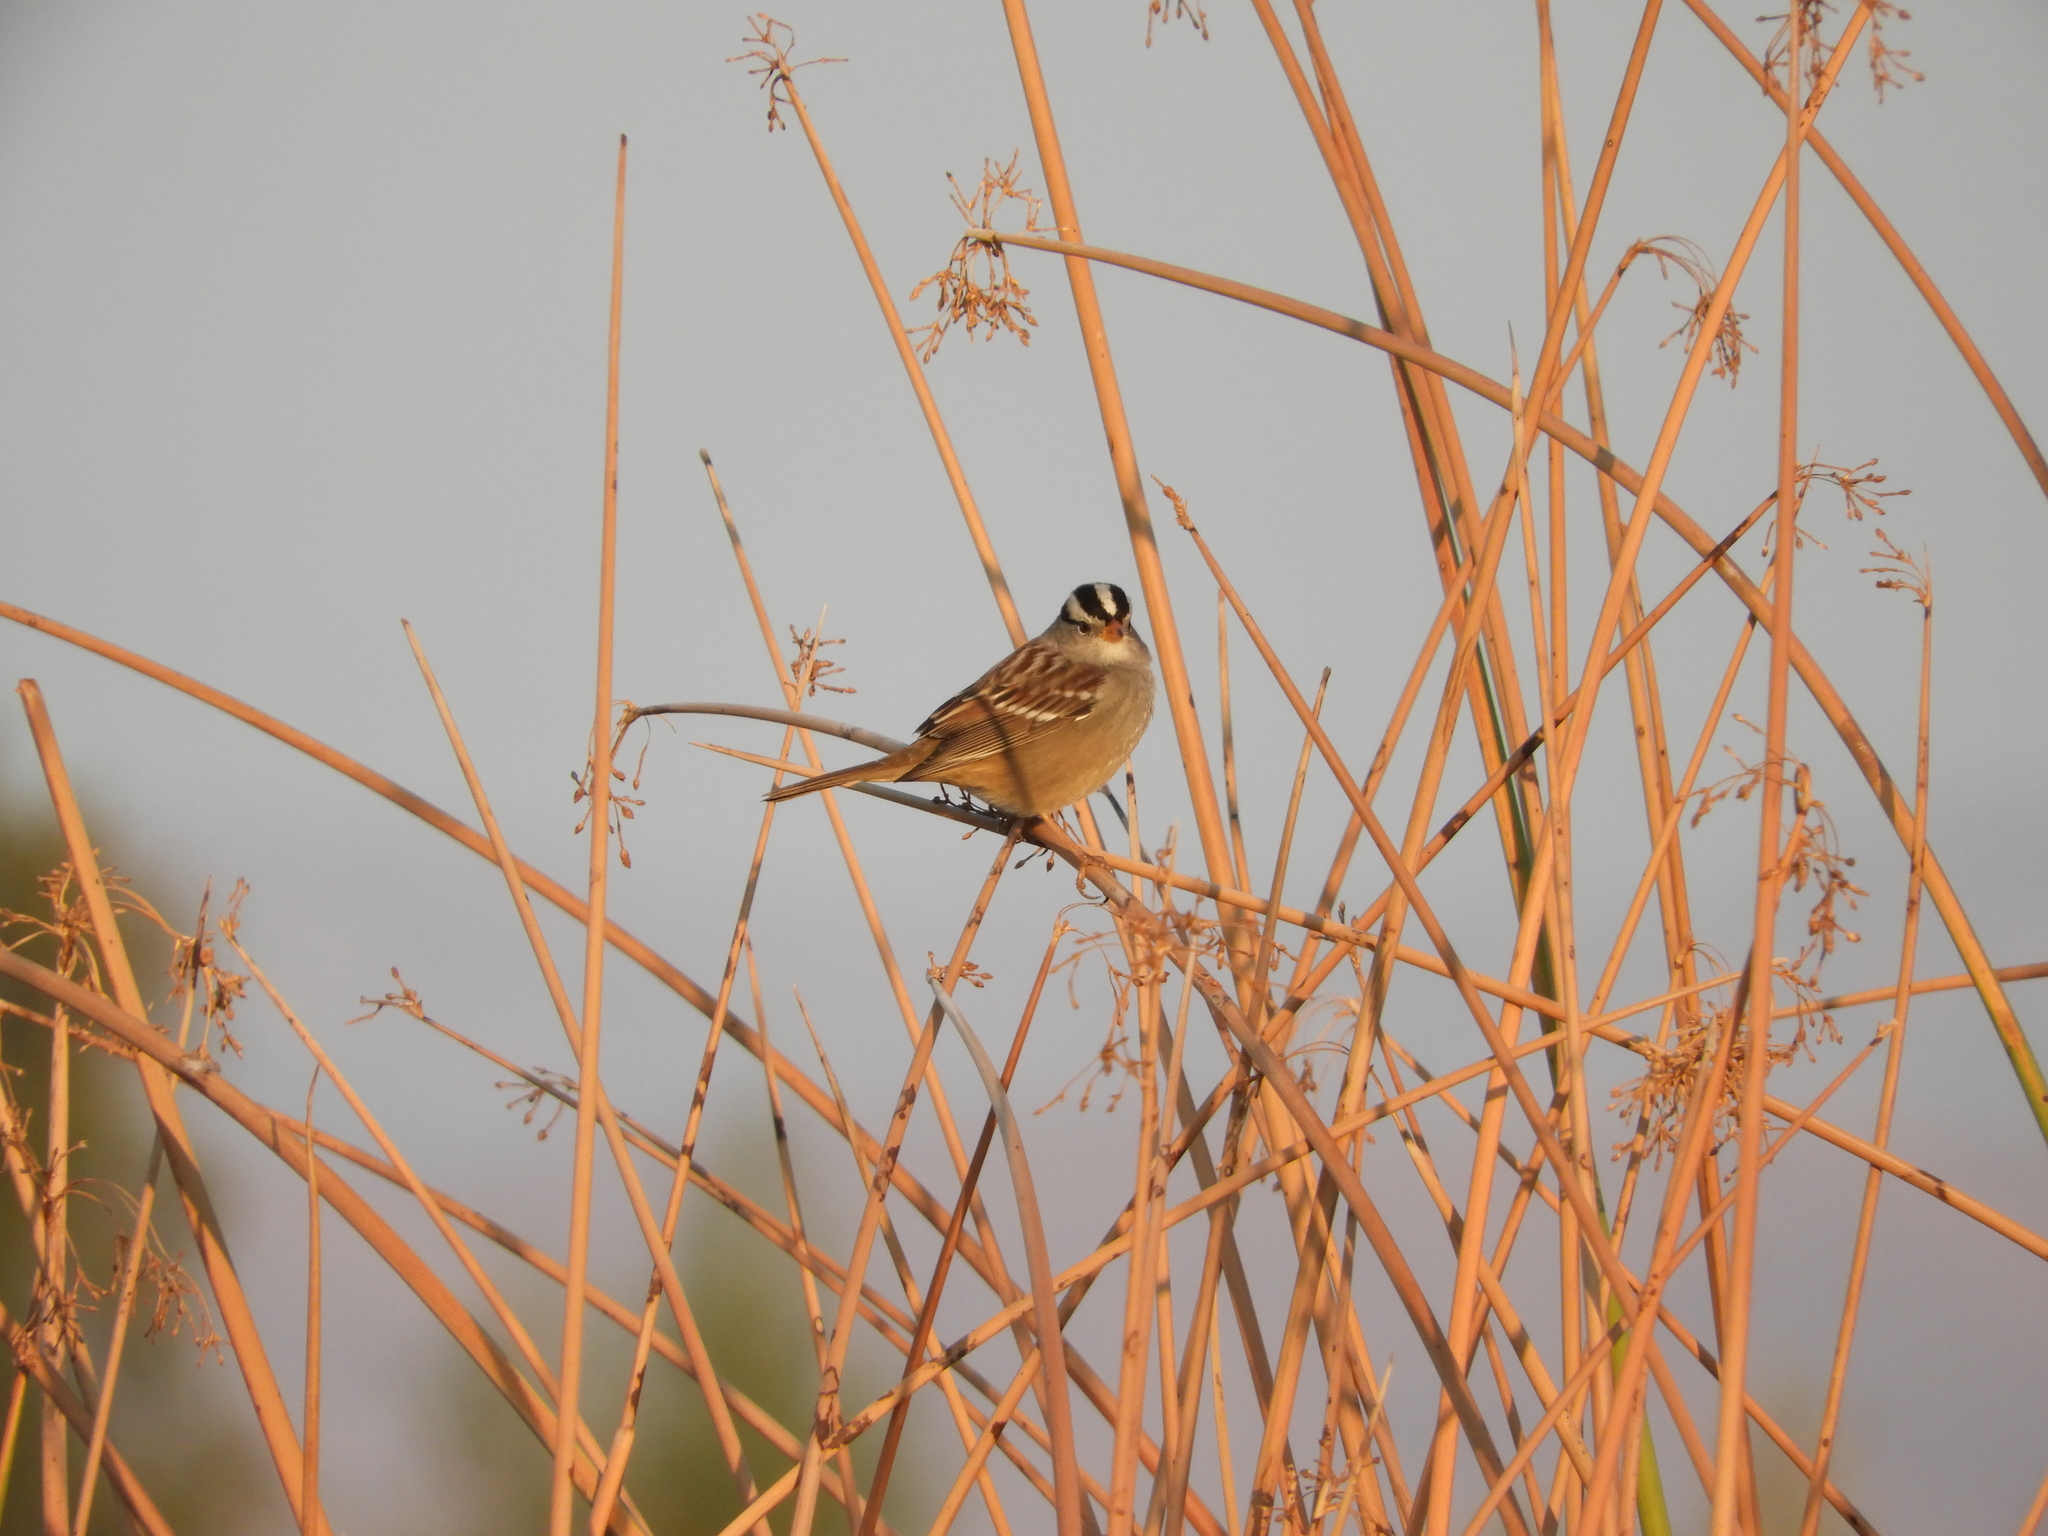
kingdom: Animalia
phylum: Chordata
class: Aves
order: Passeriformes
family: Passerellidae
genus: Zonotrichia
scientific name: Zonotrichia leucophrys
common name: White-crowned sparrow
